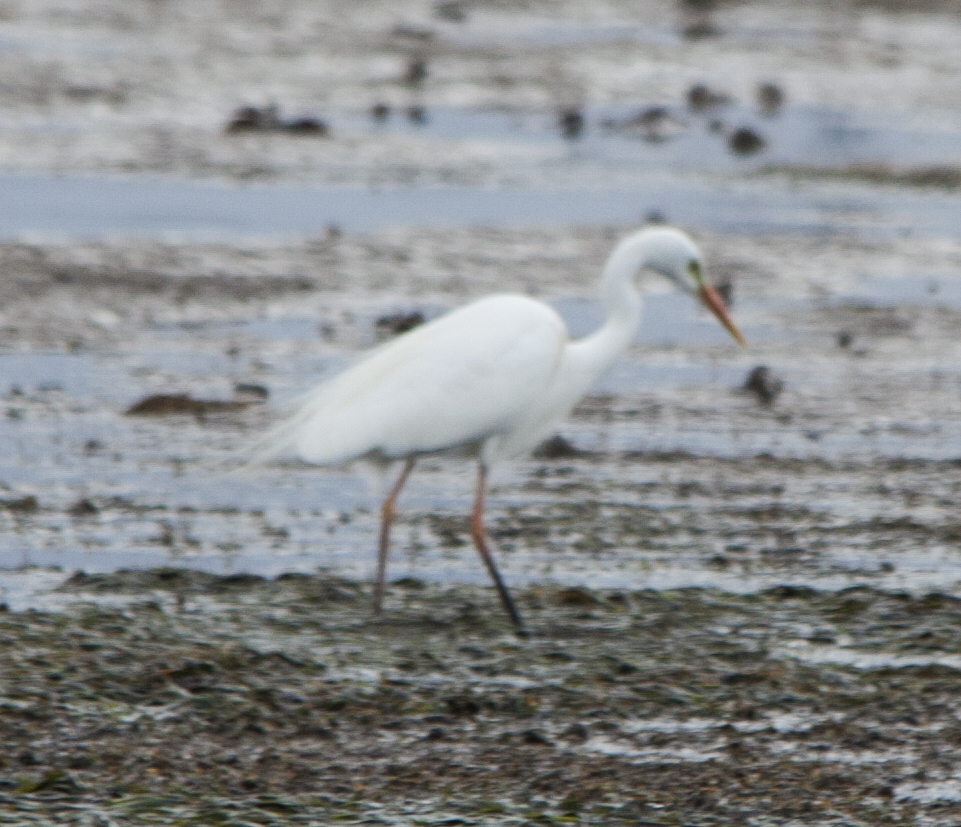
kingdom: Animalia
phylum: Chordata
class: Aves
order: Pelecaniformes
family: Ardeidae
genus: Egretta
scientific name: Egretta intermedia
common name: Intermediate egret
